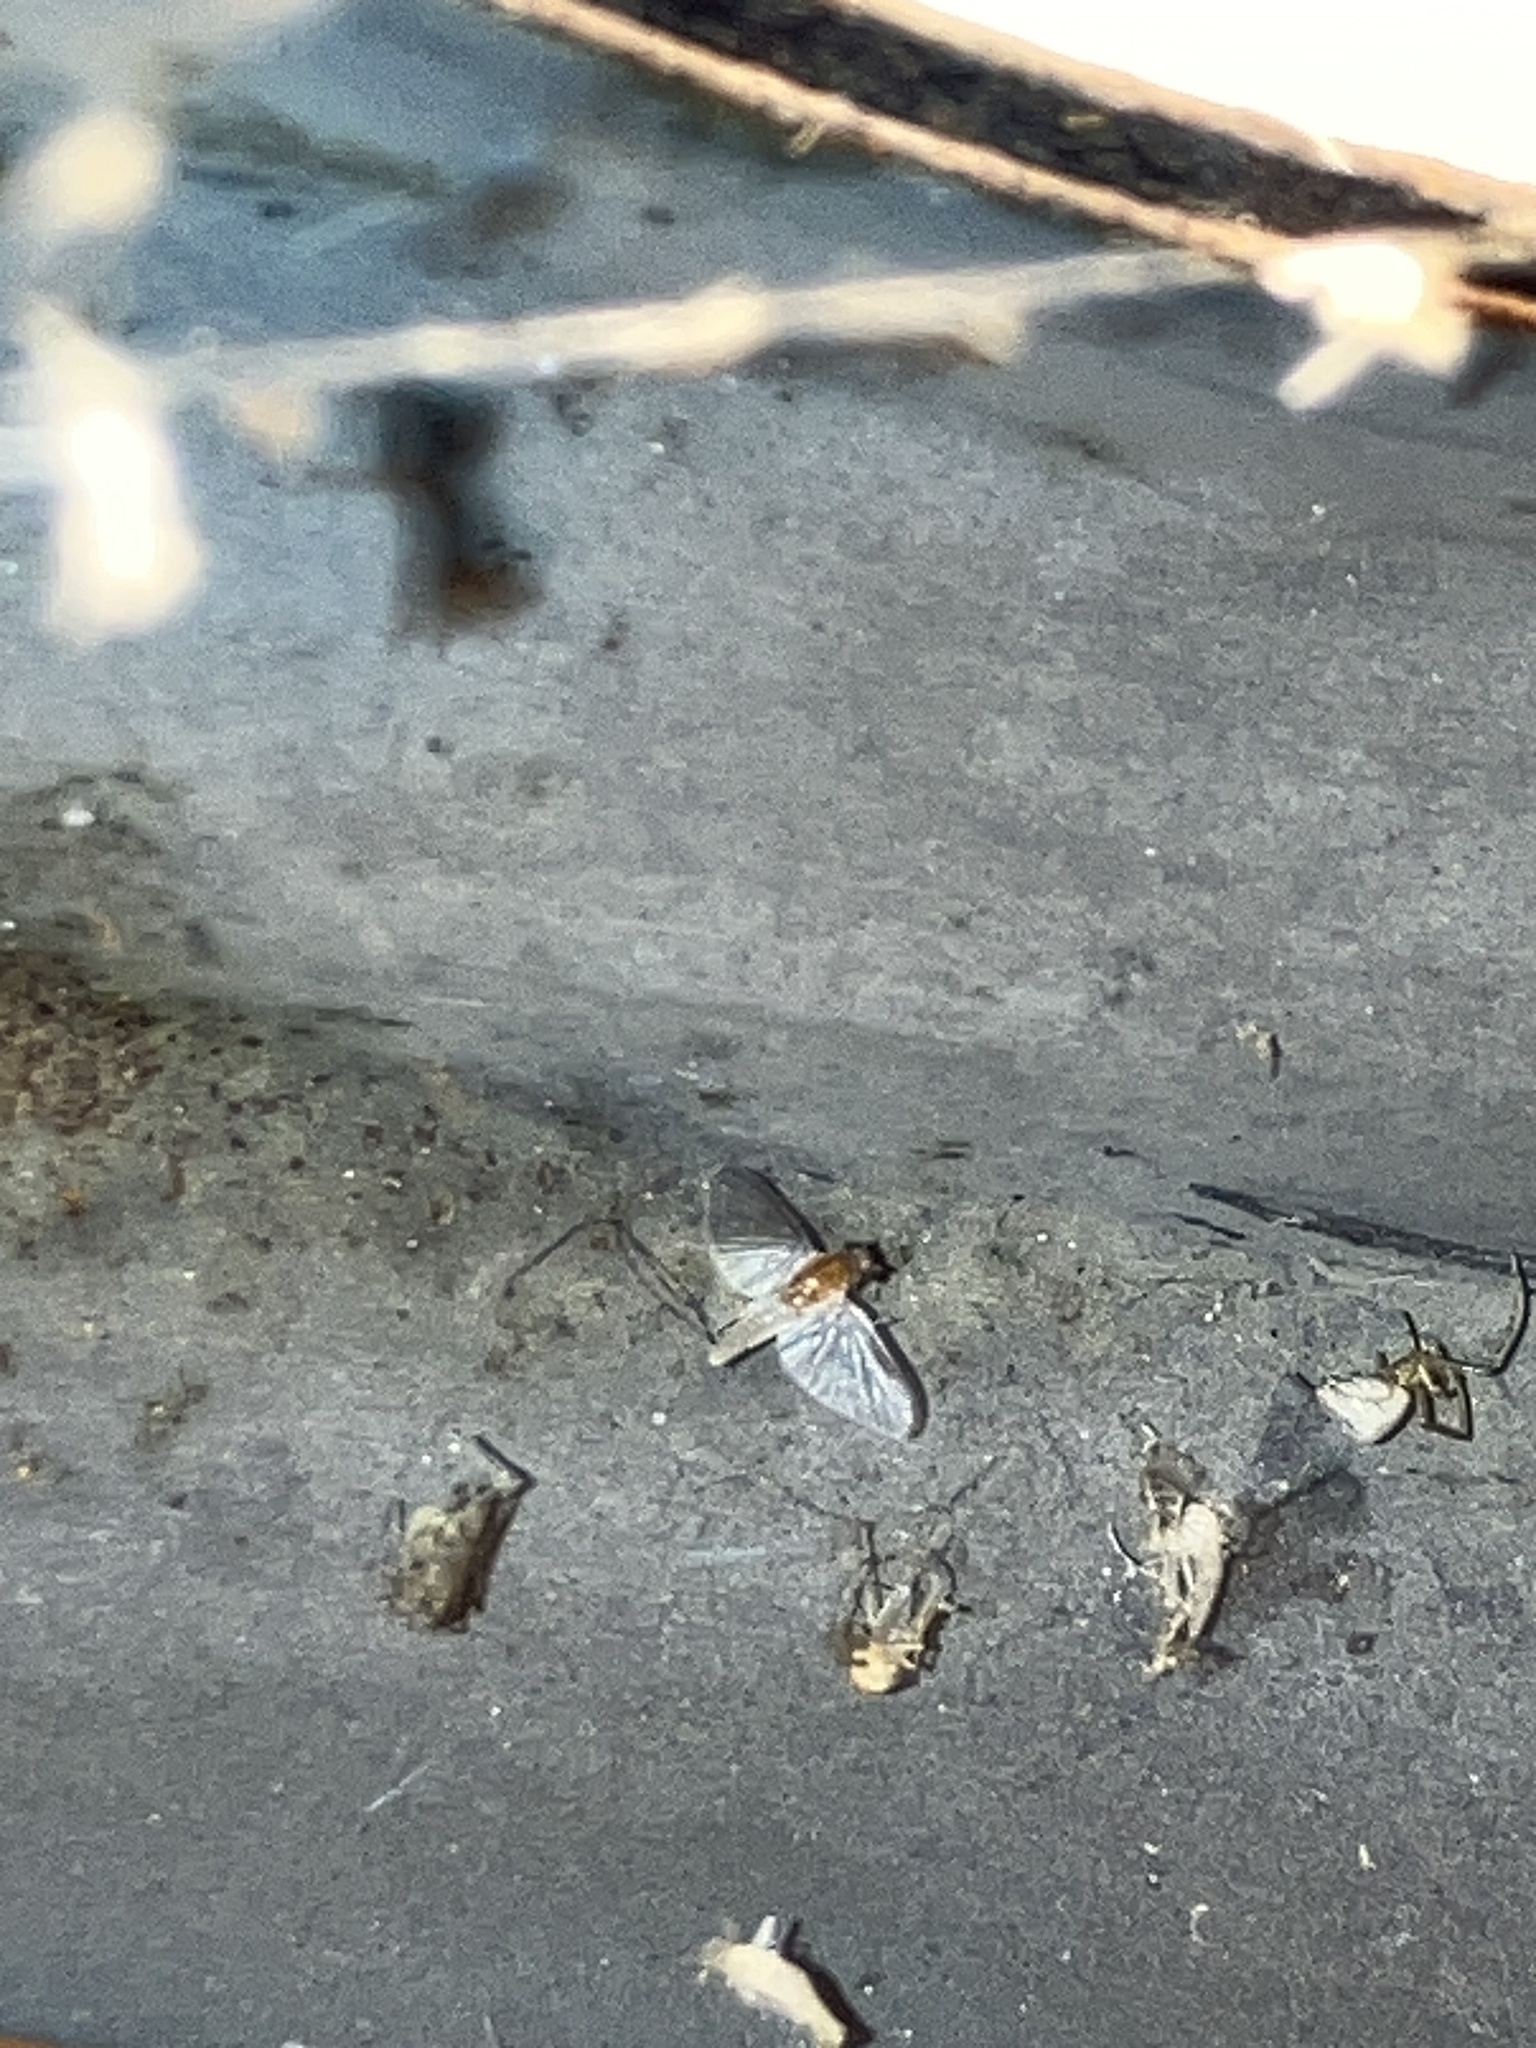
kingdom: Animalia
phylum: Arthropoda
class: Insecta
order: Ephemeroptera
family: Caenidae
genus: Caenis
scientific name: Caenis
